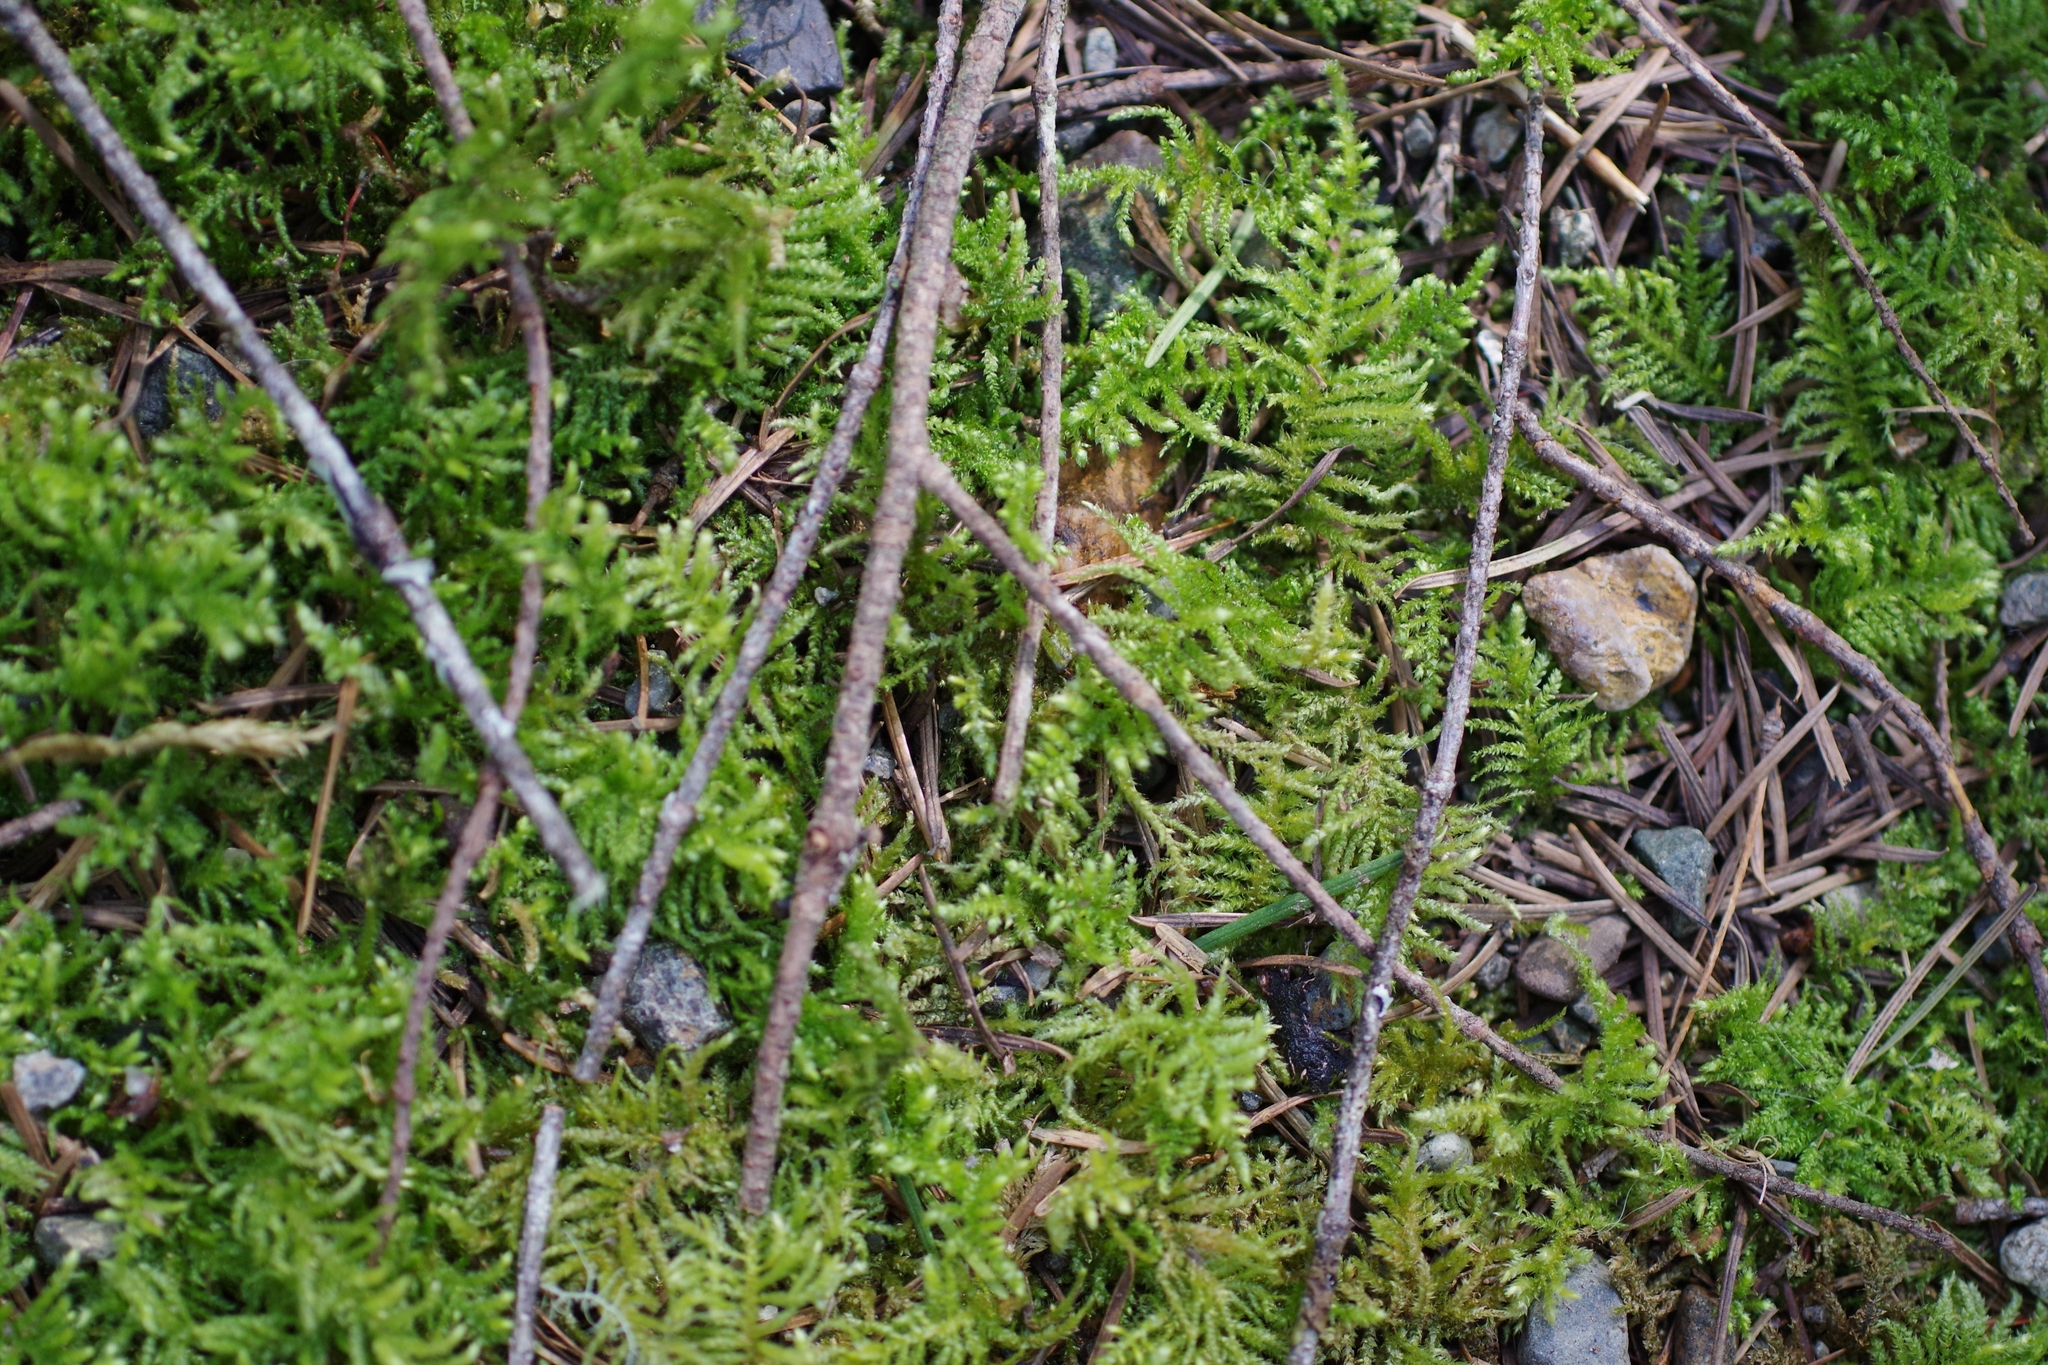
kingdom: Plantae
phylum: Bryophyta
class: Bryopsida
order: Hypnales
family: Brachytheciaceae
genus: Kindbergia
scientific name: Kindbergia oregana
